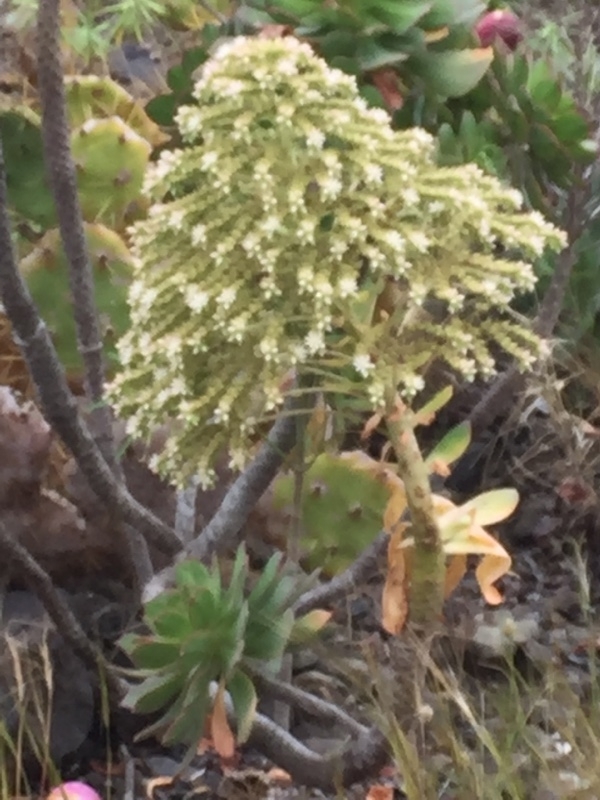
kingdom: Plantae
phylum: Tracheophyta
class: Magnoliopsida
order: Saxifragales
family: Crassulaceae
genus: Aeonium
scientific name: Aeonium percarneum
